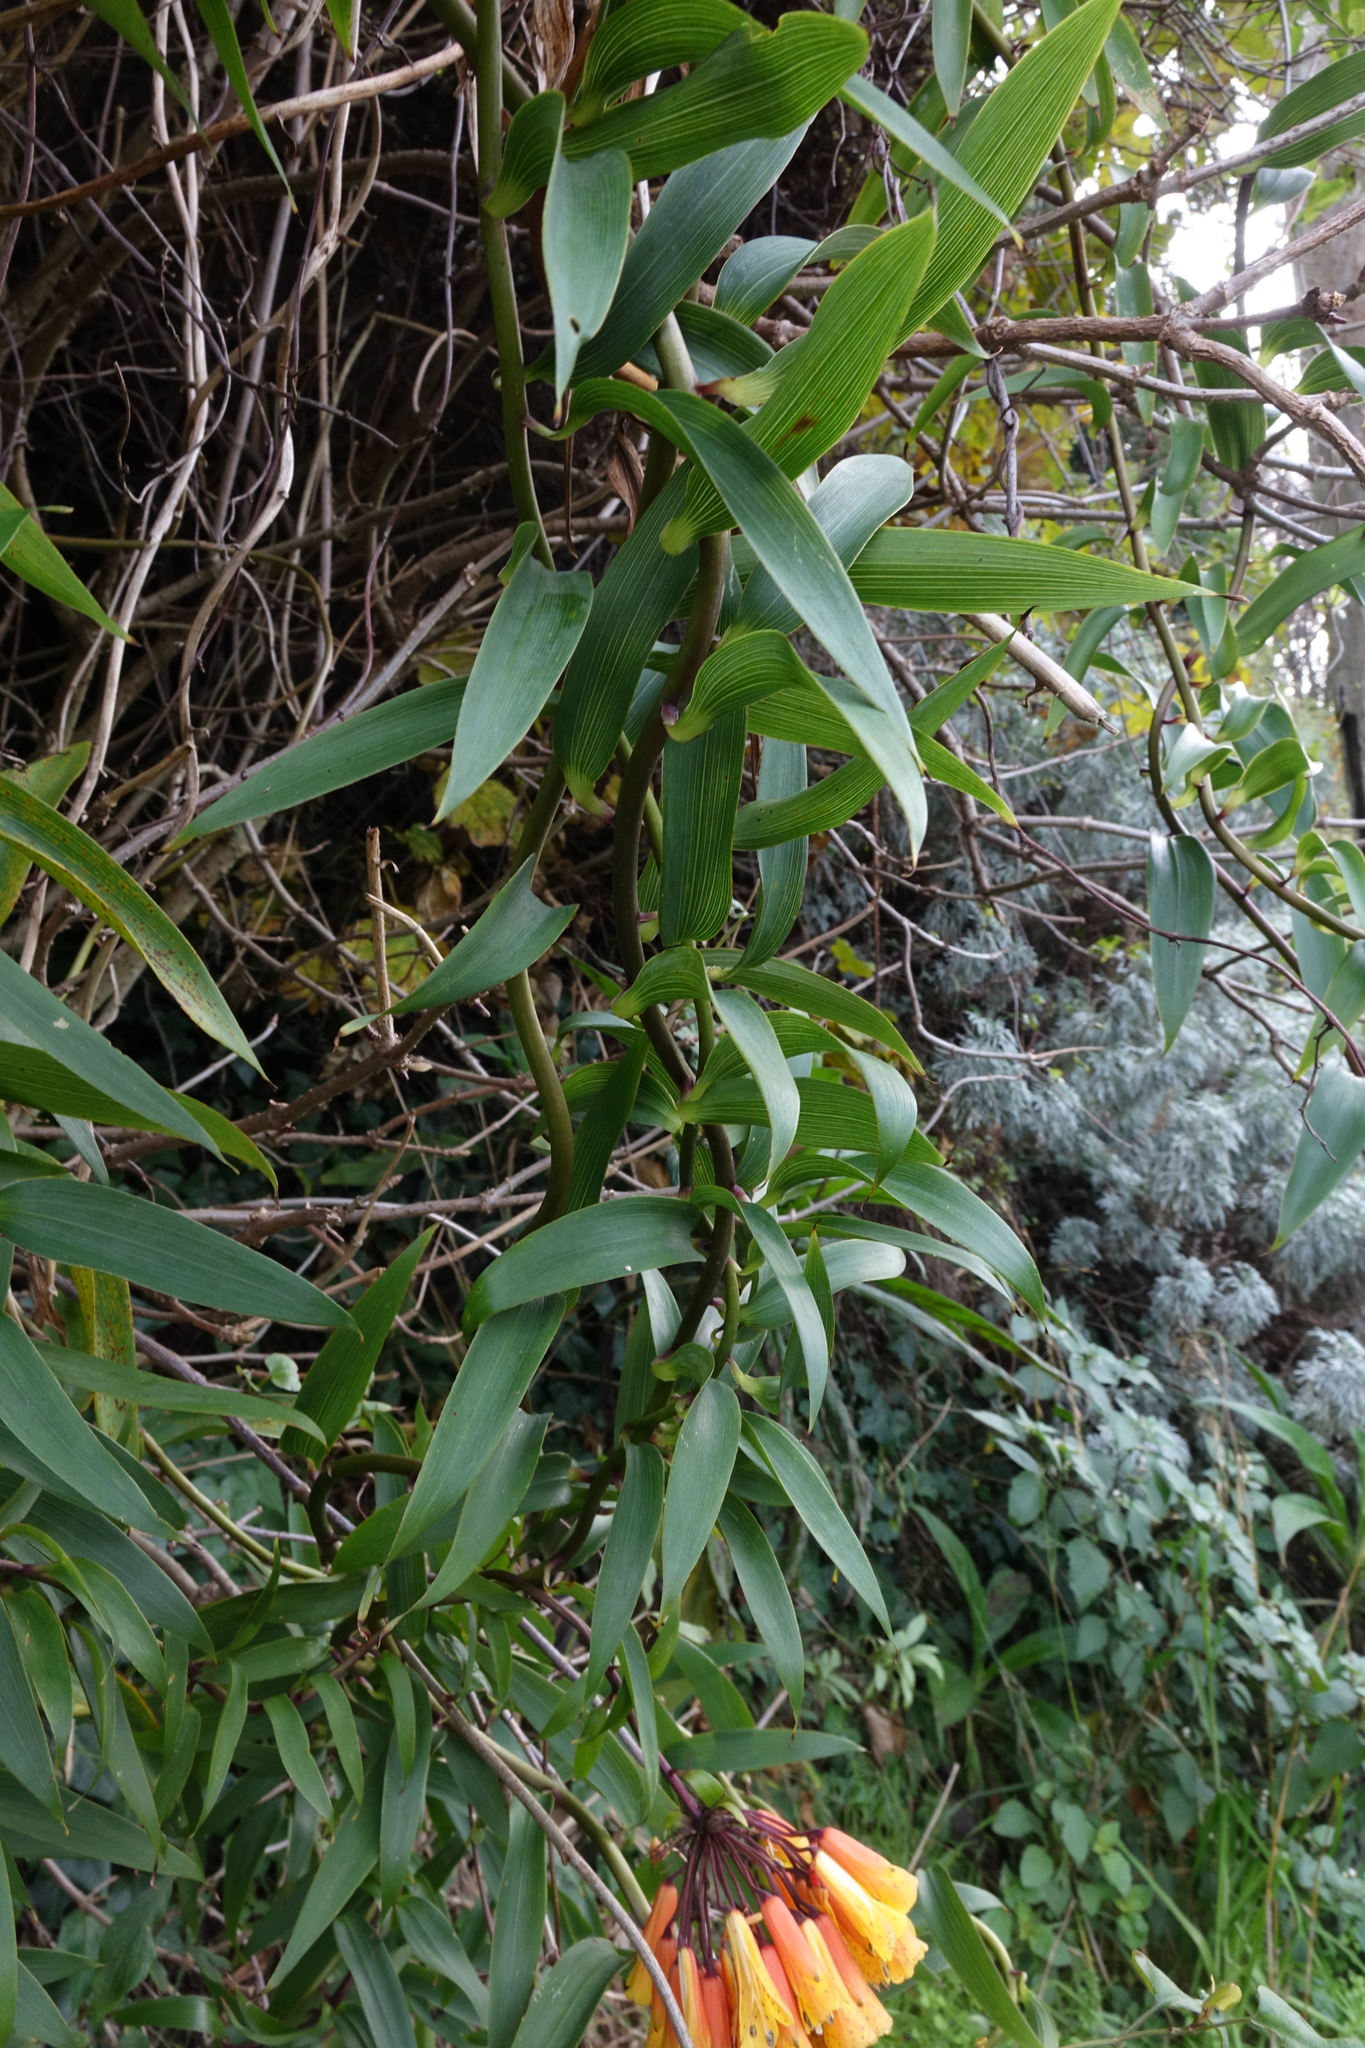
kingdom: Plantae
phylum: Tracheophyta
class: Liliopsida
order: Liliales
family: Alstroemeriaceae
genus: Bomarea
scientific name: Bomarea multiflora
